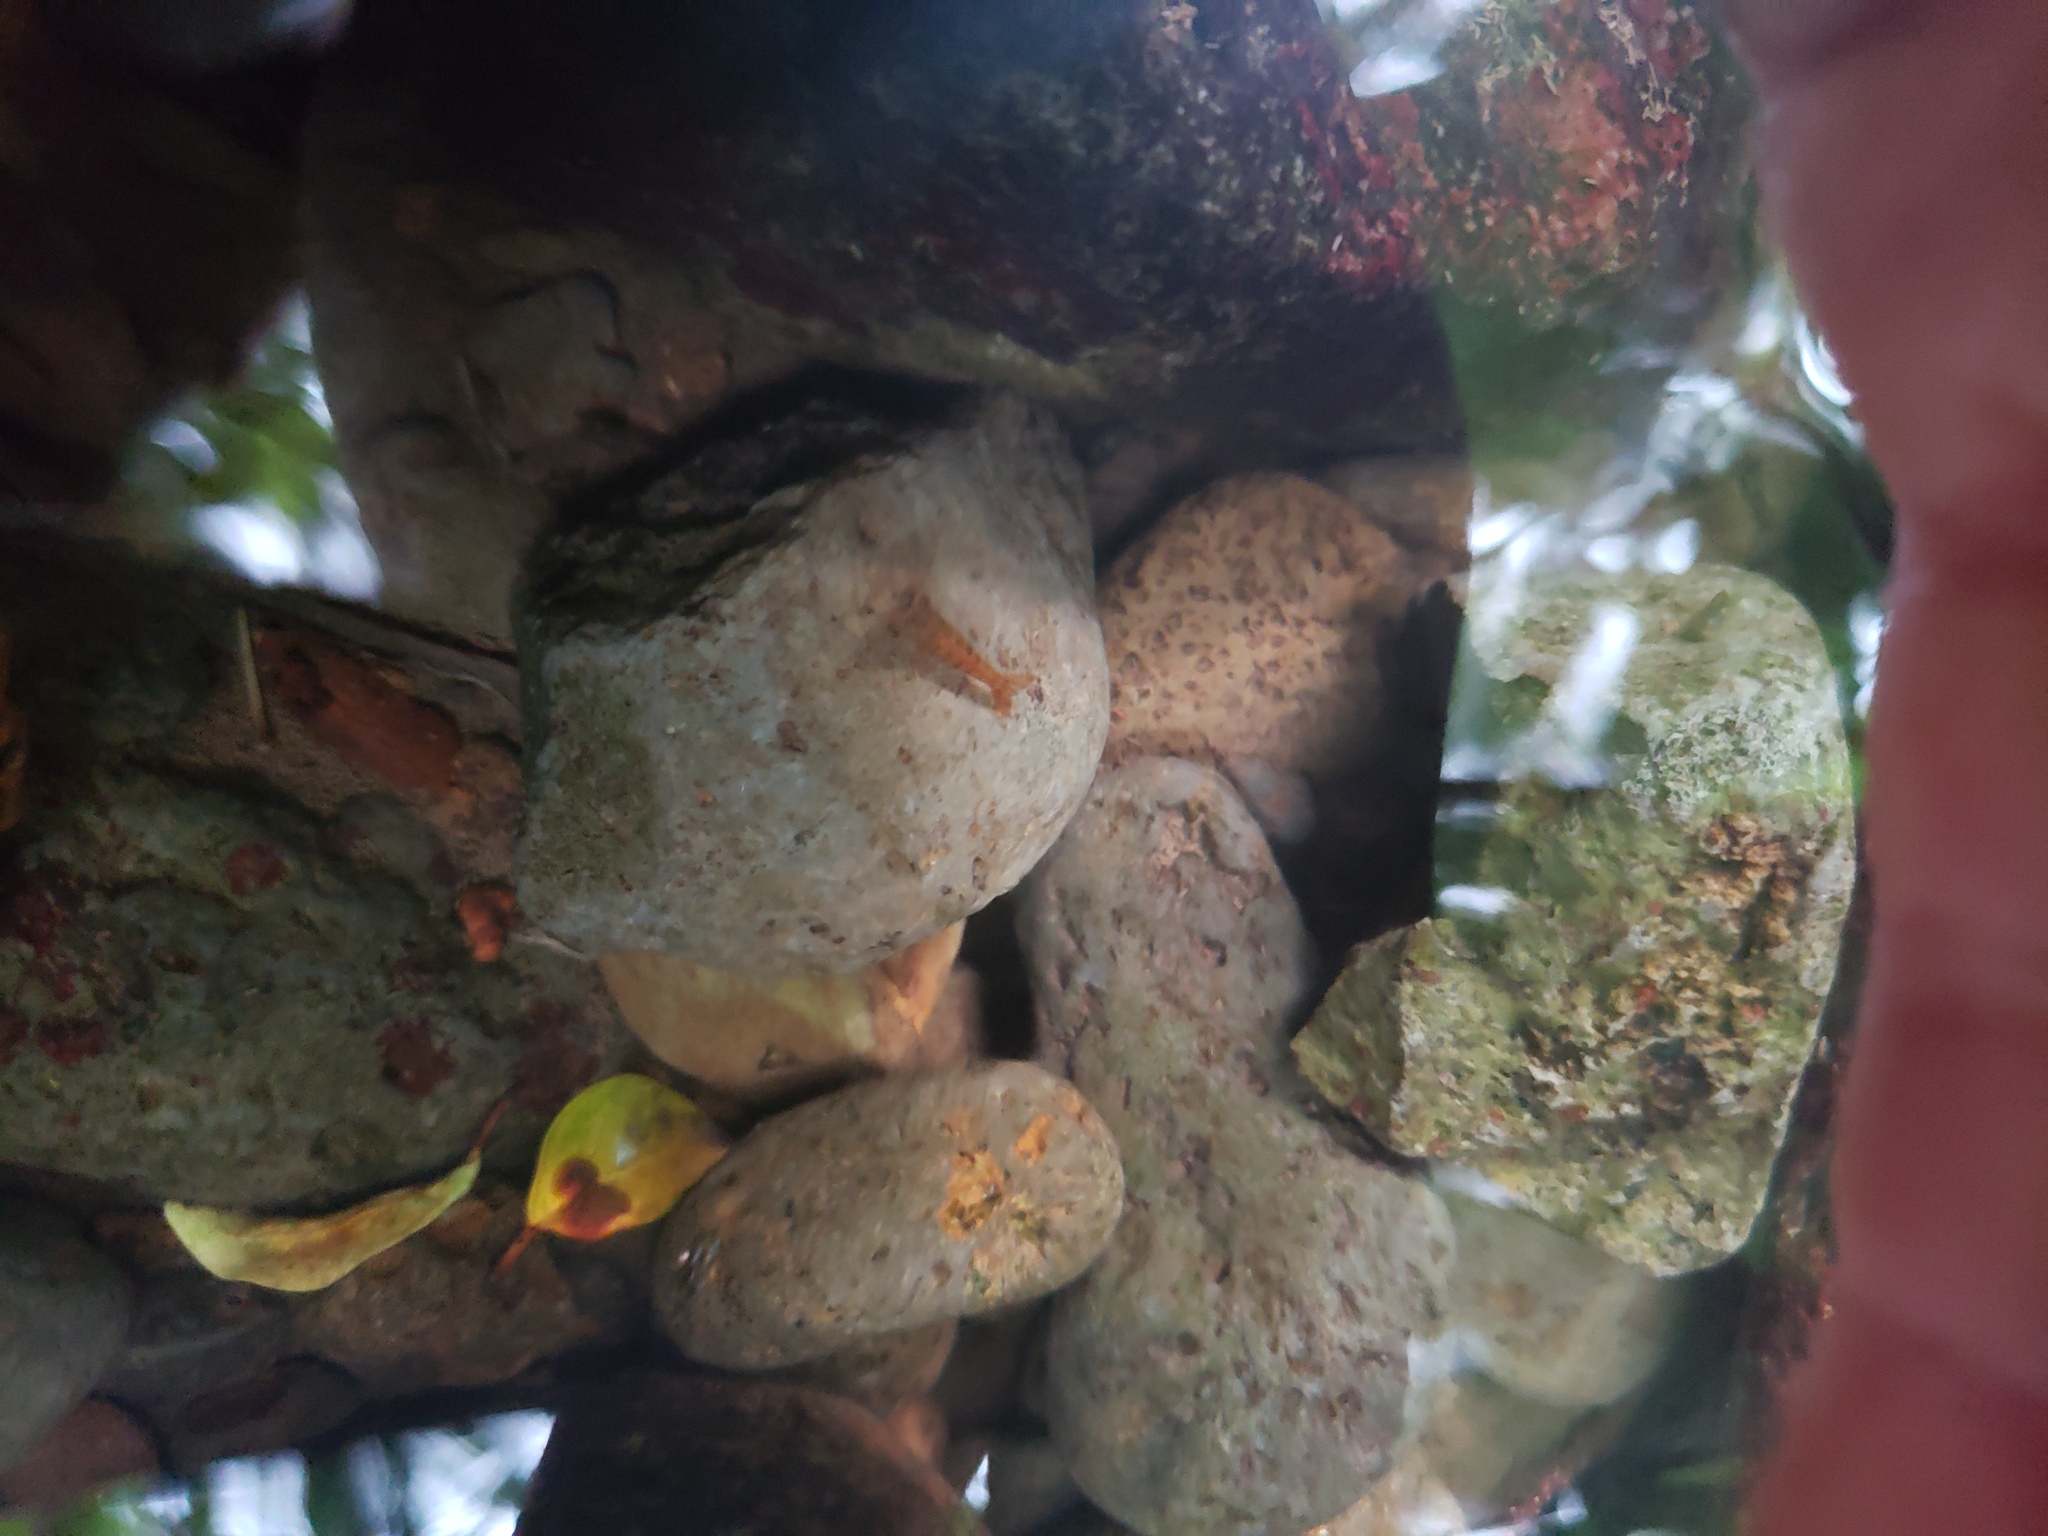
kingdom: Animalia
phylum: Arthropoda
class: Malacostraca
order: Decapoda
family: Atyidae
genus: Neocaridina
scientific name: Neocaridina davidi
